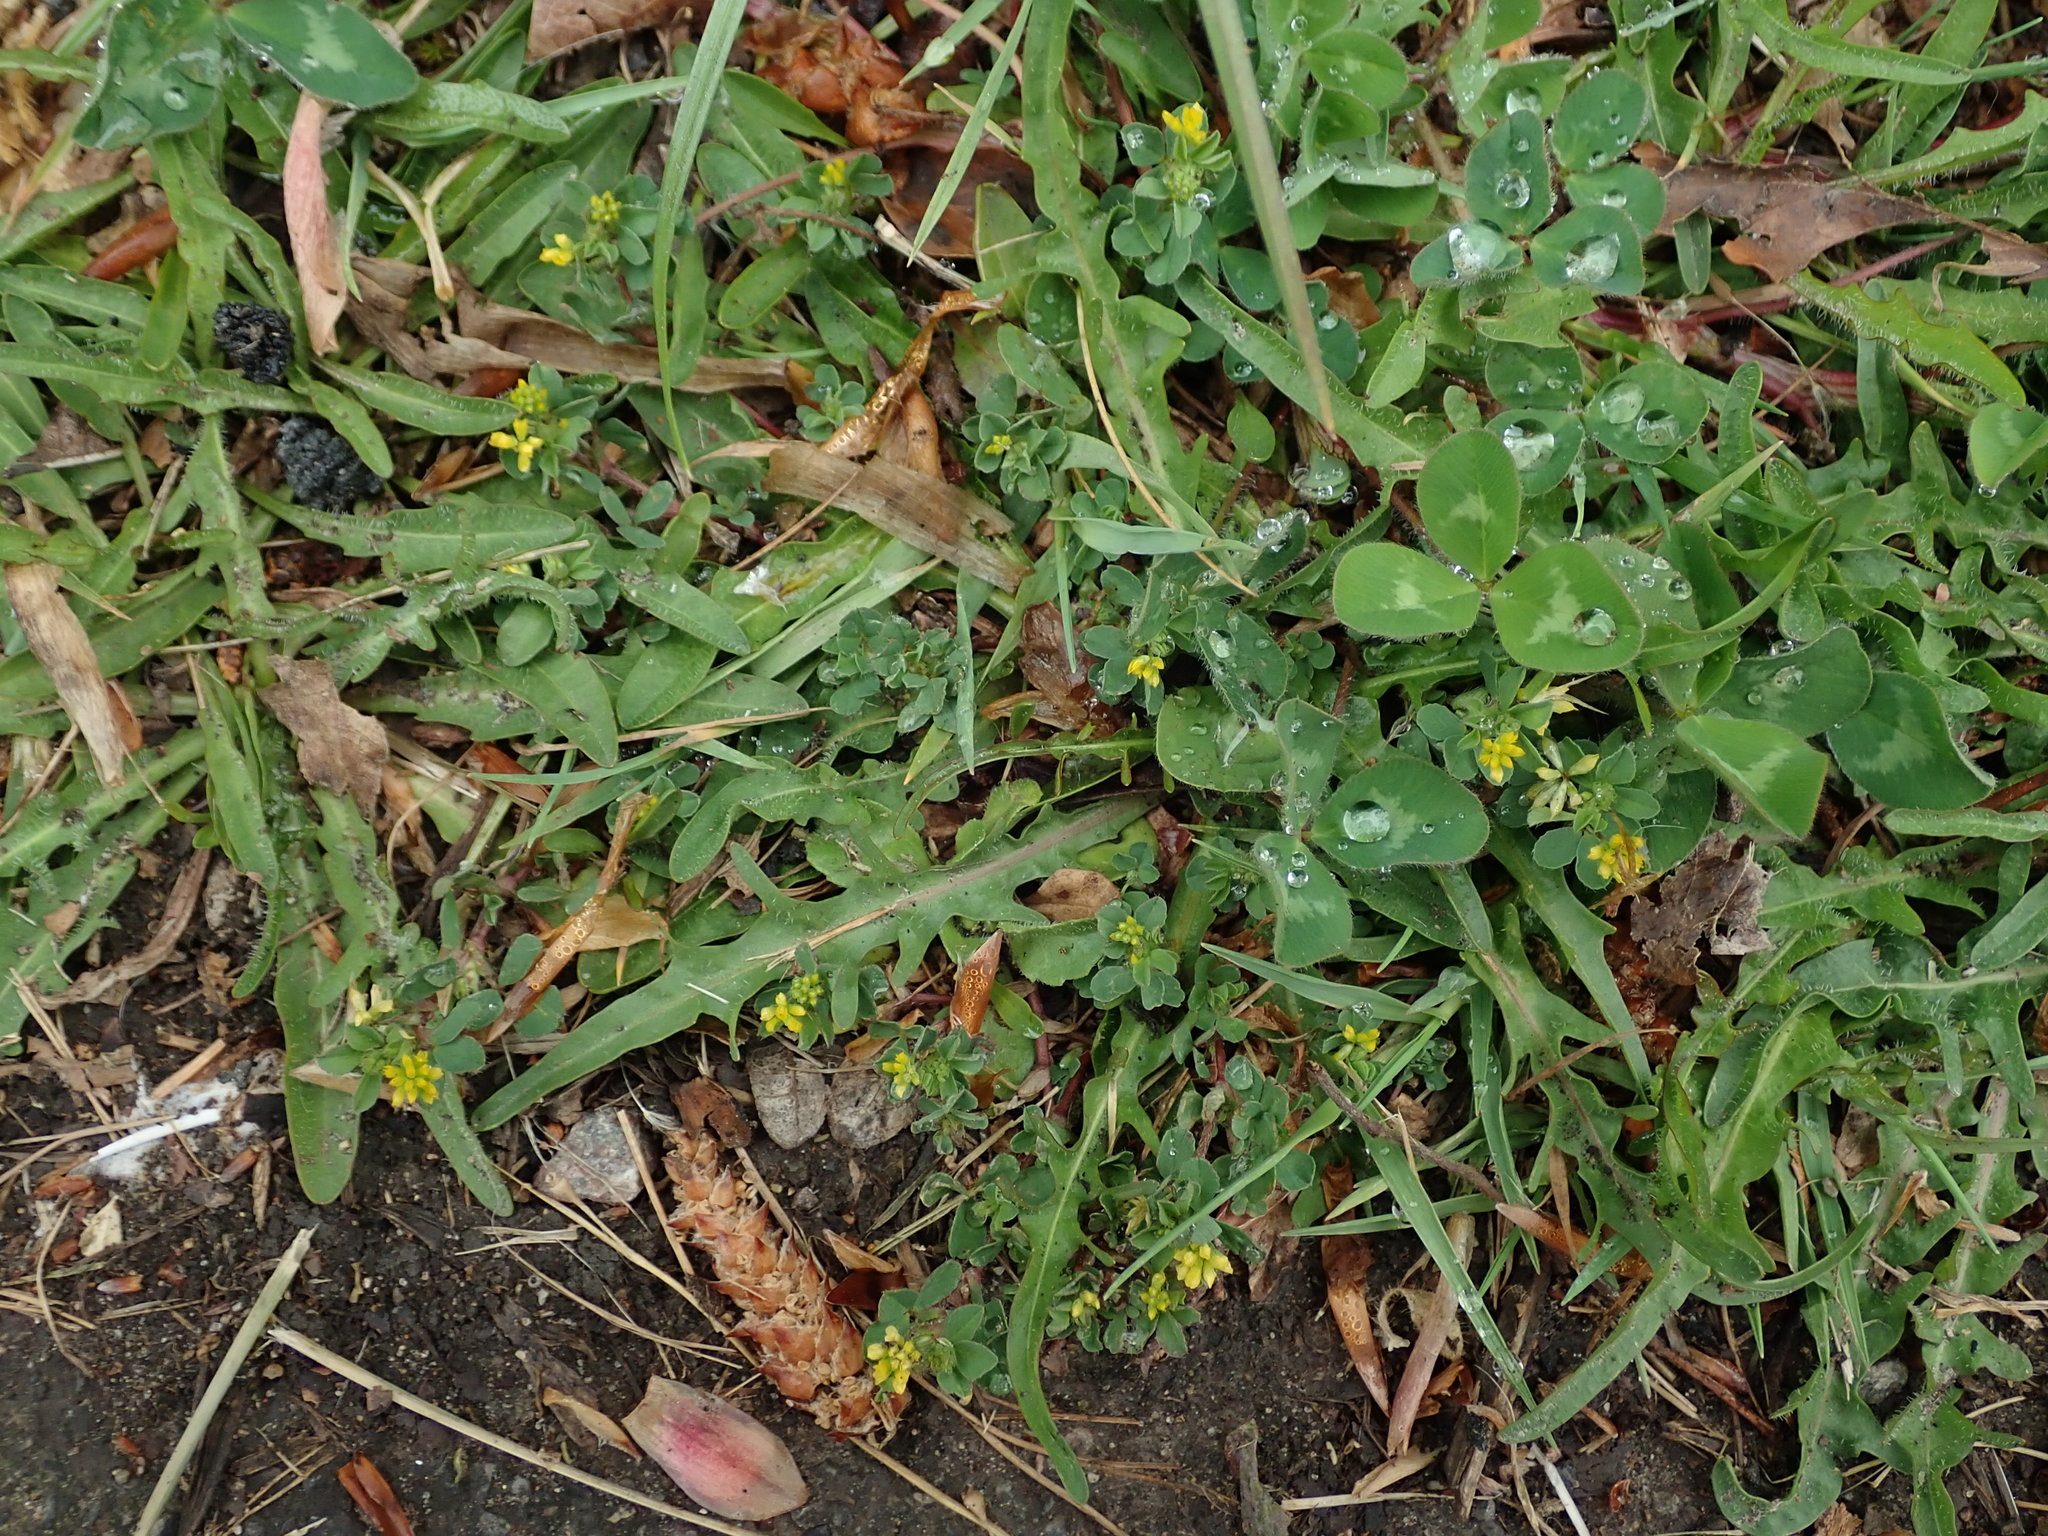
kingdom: Plantae
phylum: Tracheophyta
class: Magnoliopsida
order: Fabales
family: Fabaceae
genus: Trifolium
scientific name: Trifolium dubium
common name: Suckling clover
